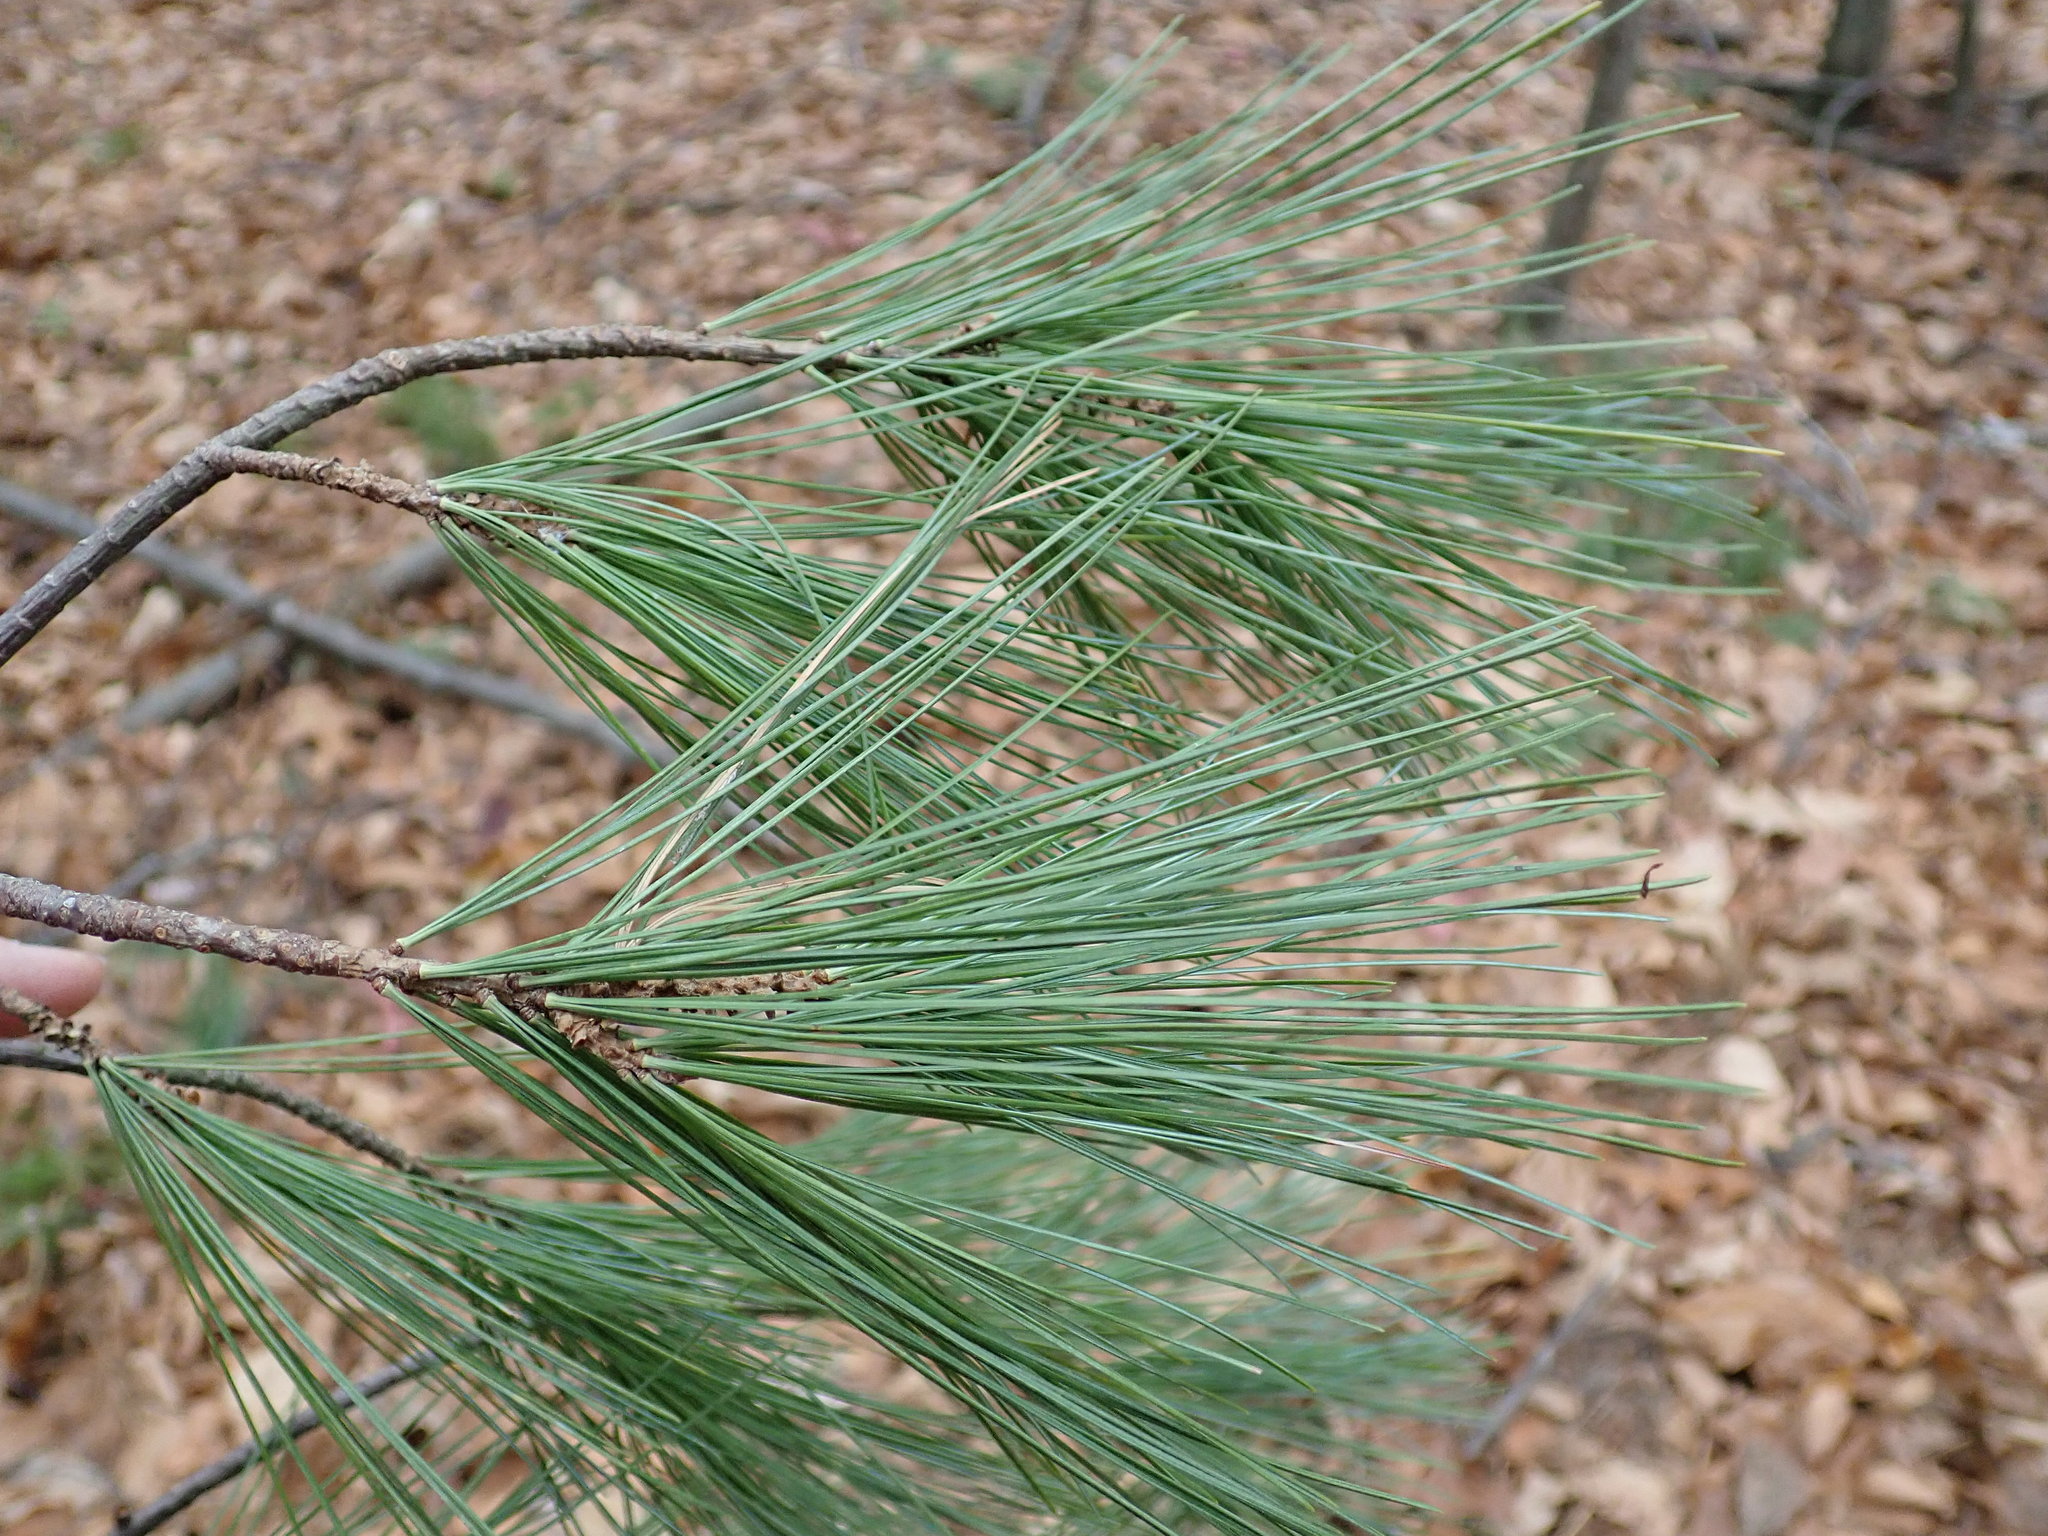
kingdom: Plantae
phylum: Tracheophyta
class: Pinopsida
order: Pinales
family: Pinaceae
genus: Pinus
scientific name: Pinus strobus
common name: Weymouth pine
